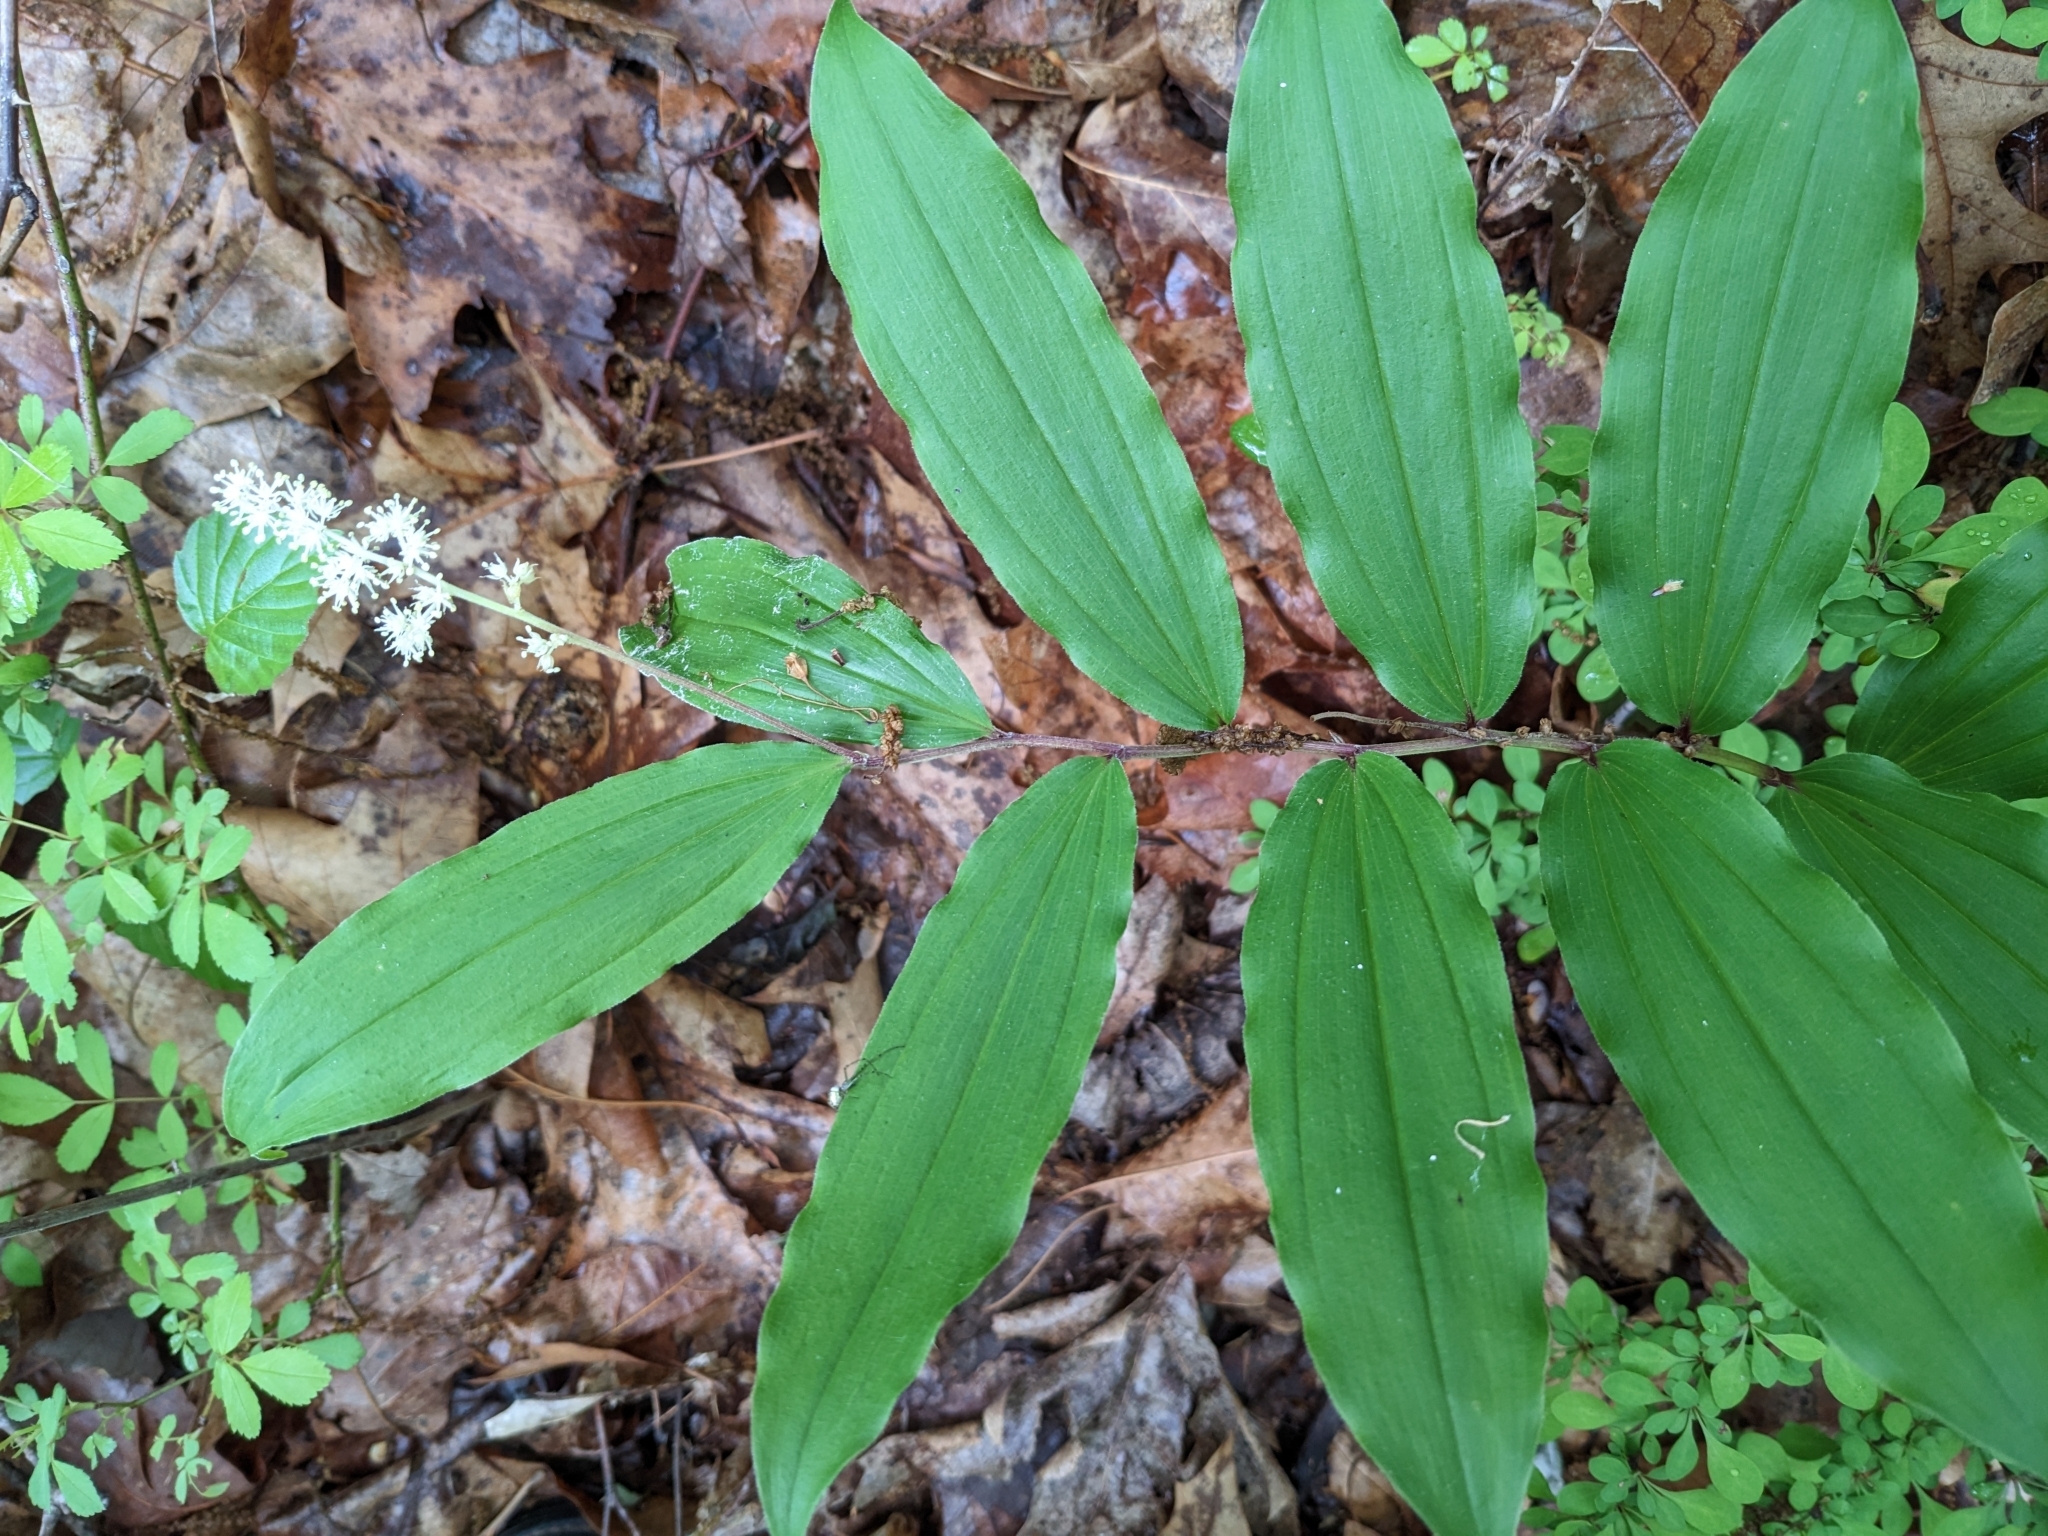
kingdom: Plantae
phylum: Tracheophyta
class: Liliopsida
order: Asparagales
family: Asparagaceae
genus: Maianthemum
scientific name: Maianthemum racemosum
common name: False spikenard
